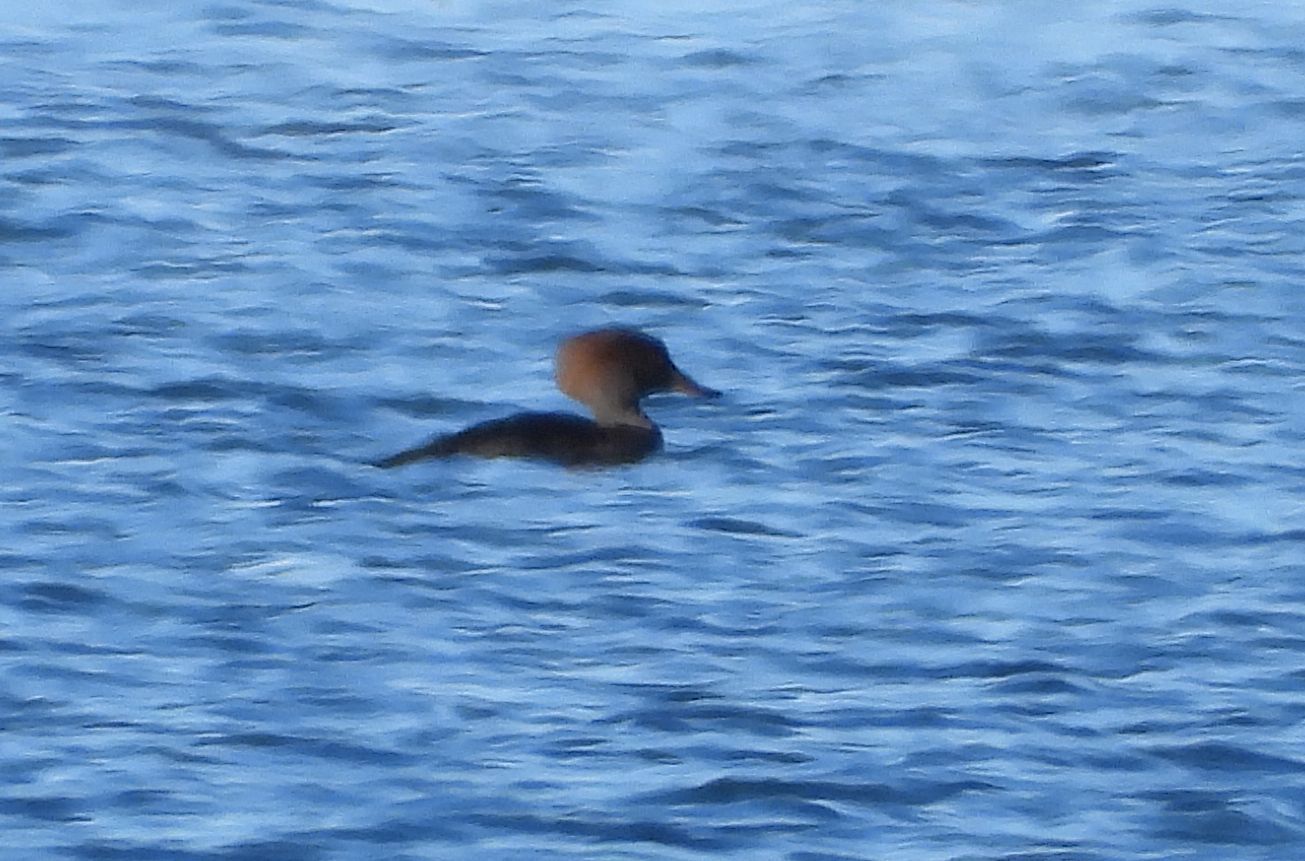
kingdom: Animalia
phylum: Chordata
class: Aves
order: Anseriformes
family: Anatidae
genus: Lophodytes
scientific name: Lophodytes cucullatus
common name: Hooded merganser
